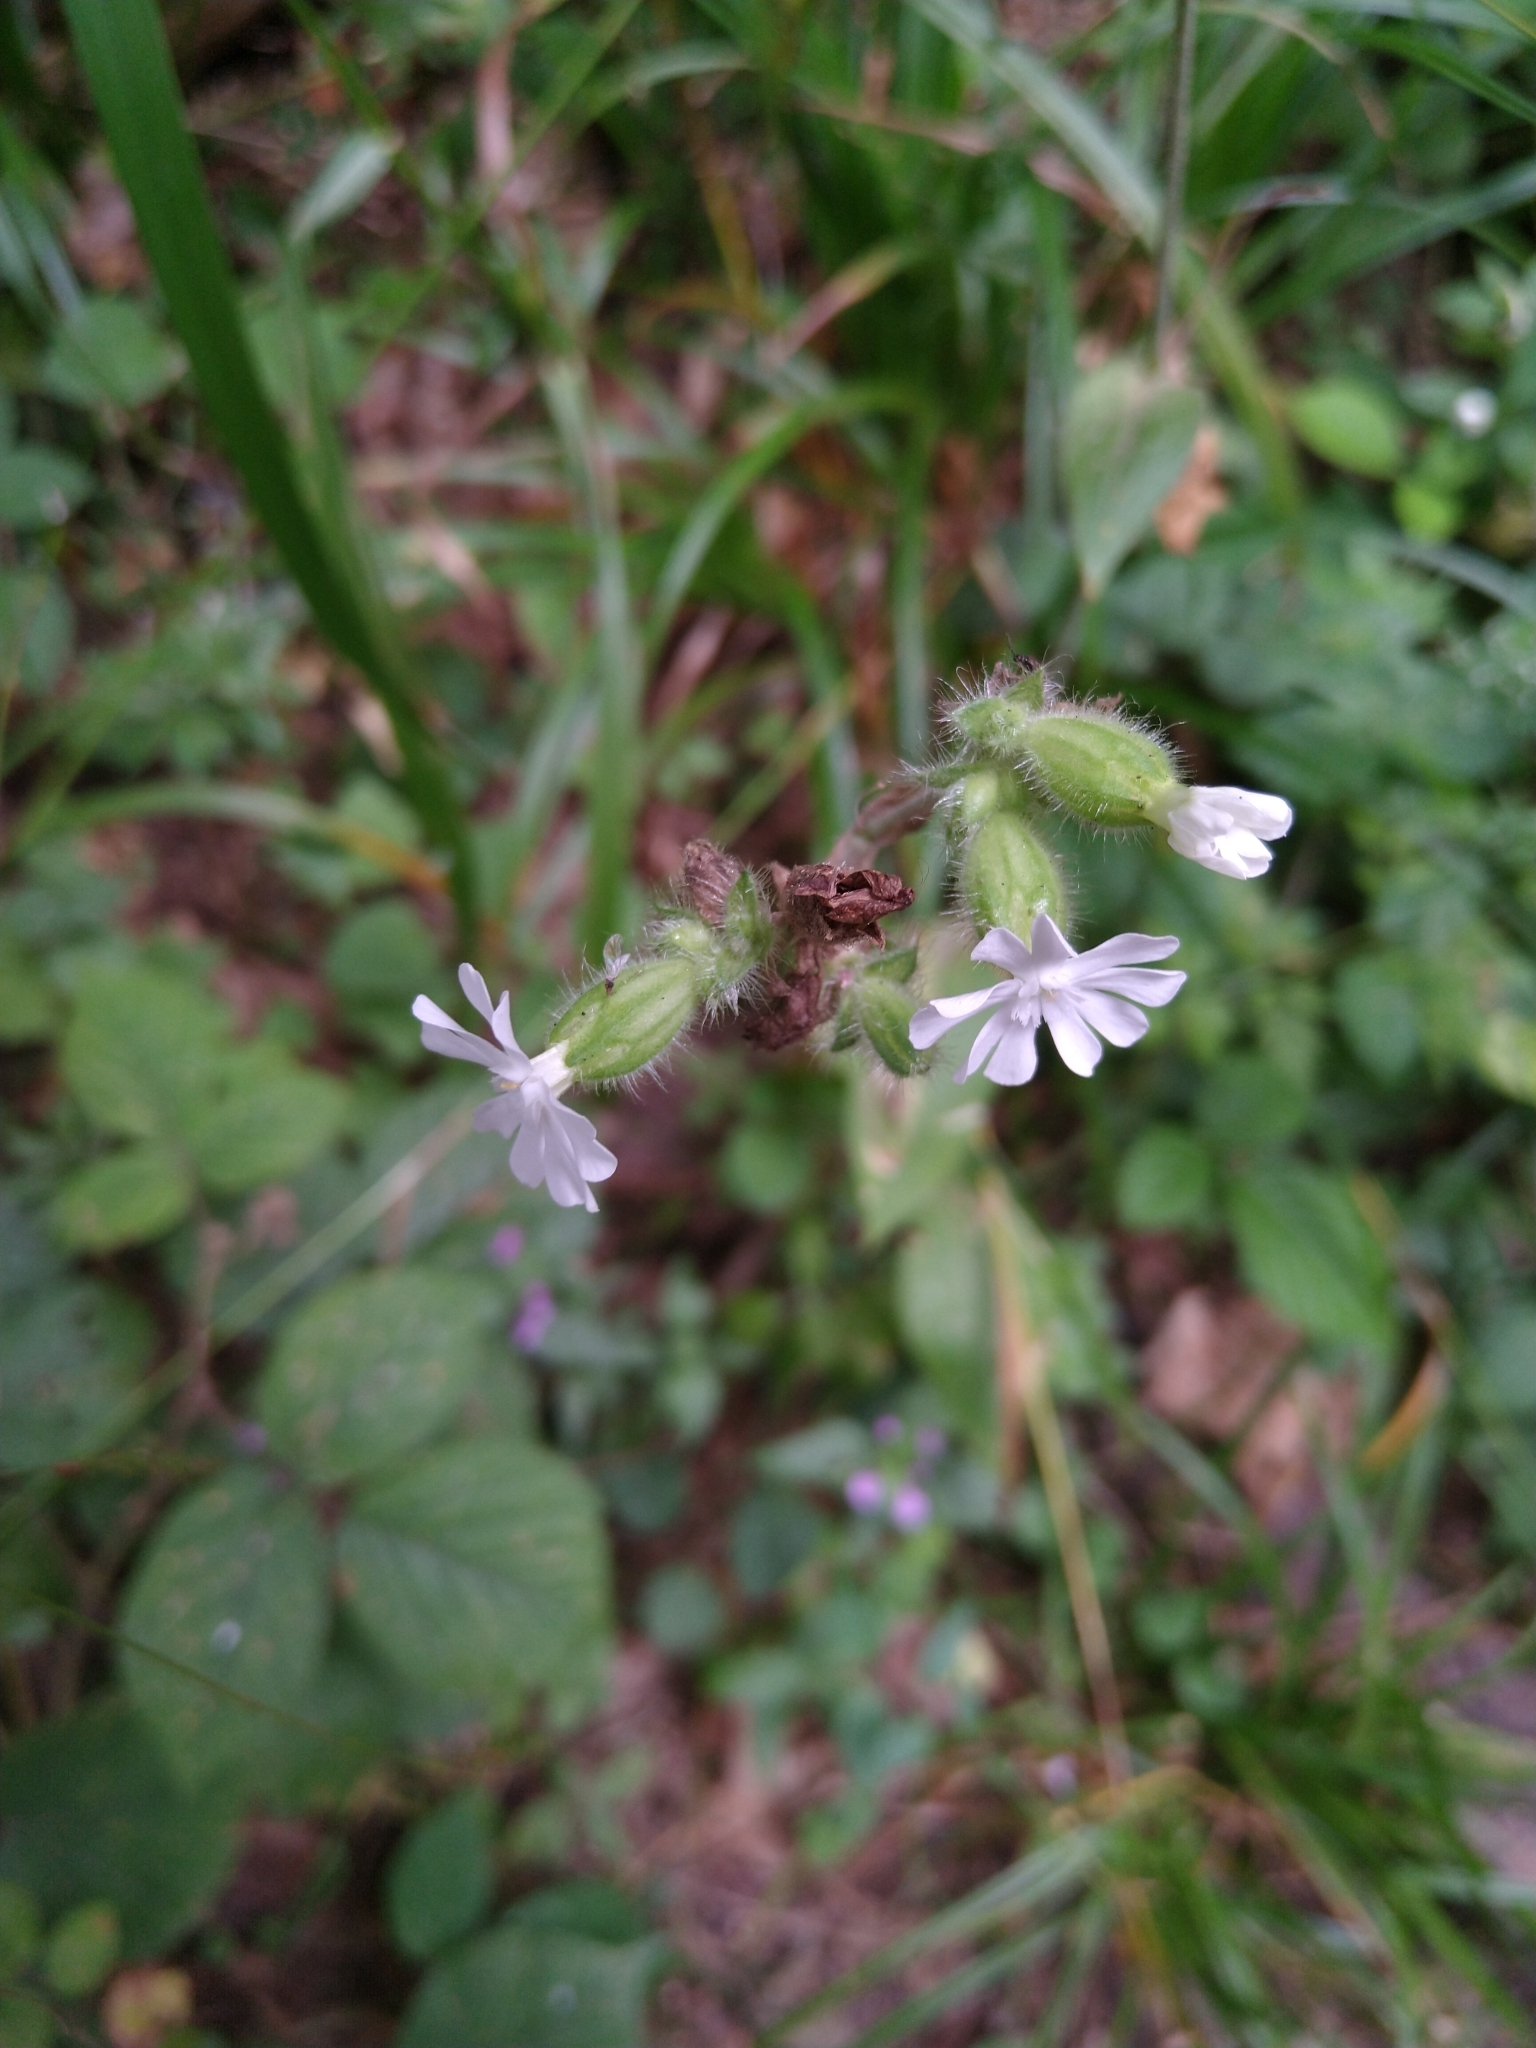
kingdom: Plantae
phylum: Tracheophyta
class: Magnoliopsida
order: Caryophyllales
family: Caryophyllaceae
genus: Silene
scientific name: Silene latifolia
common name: White campion
